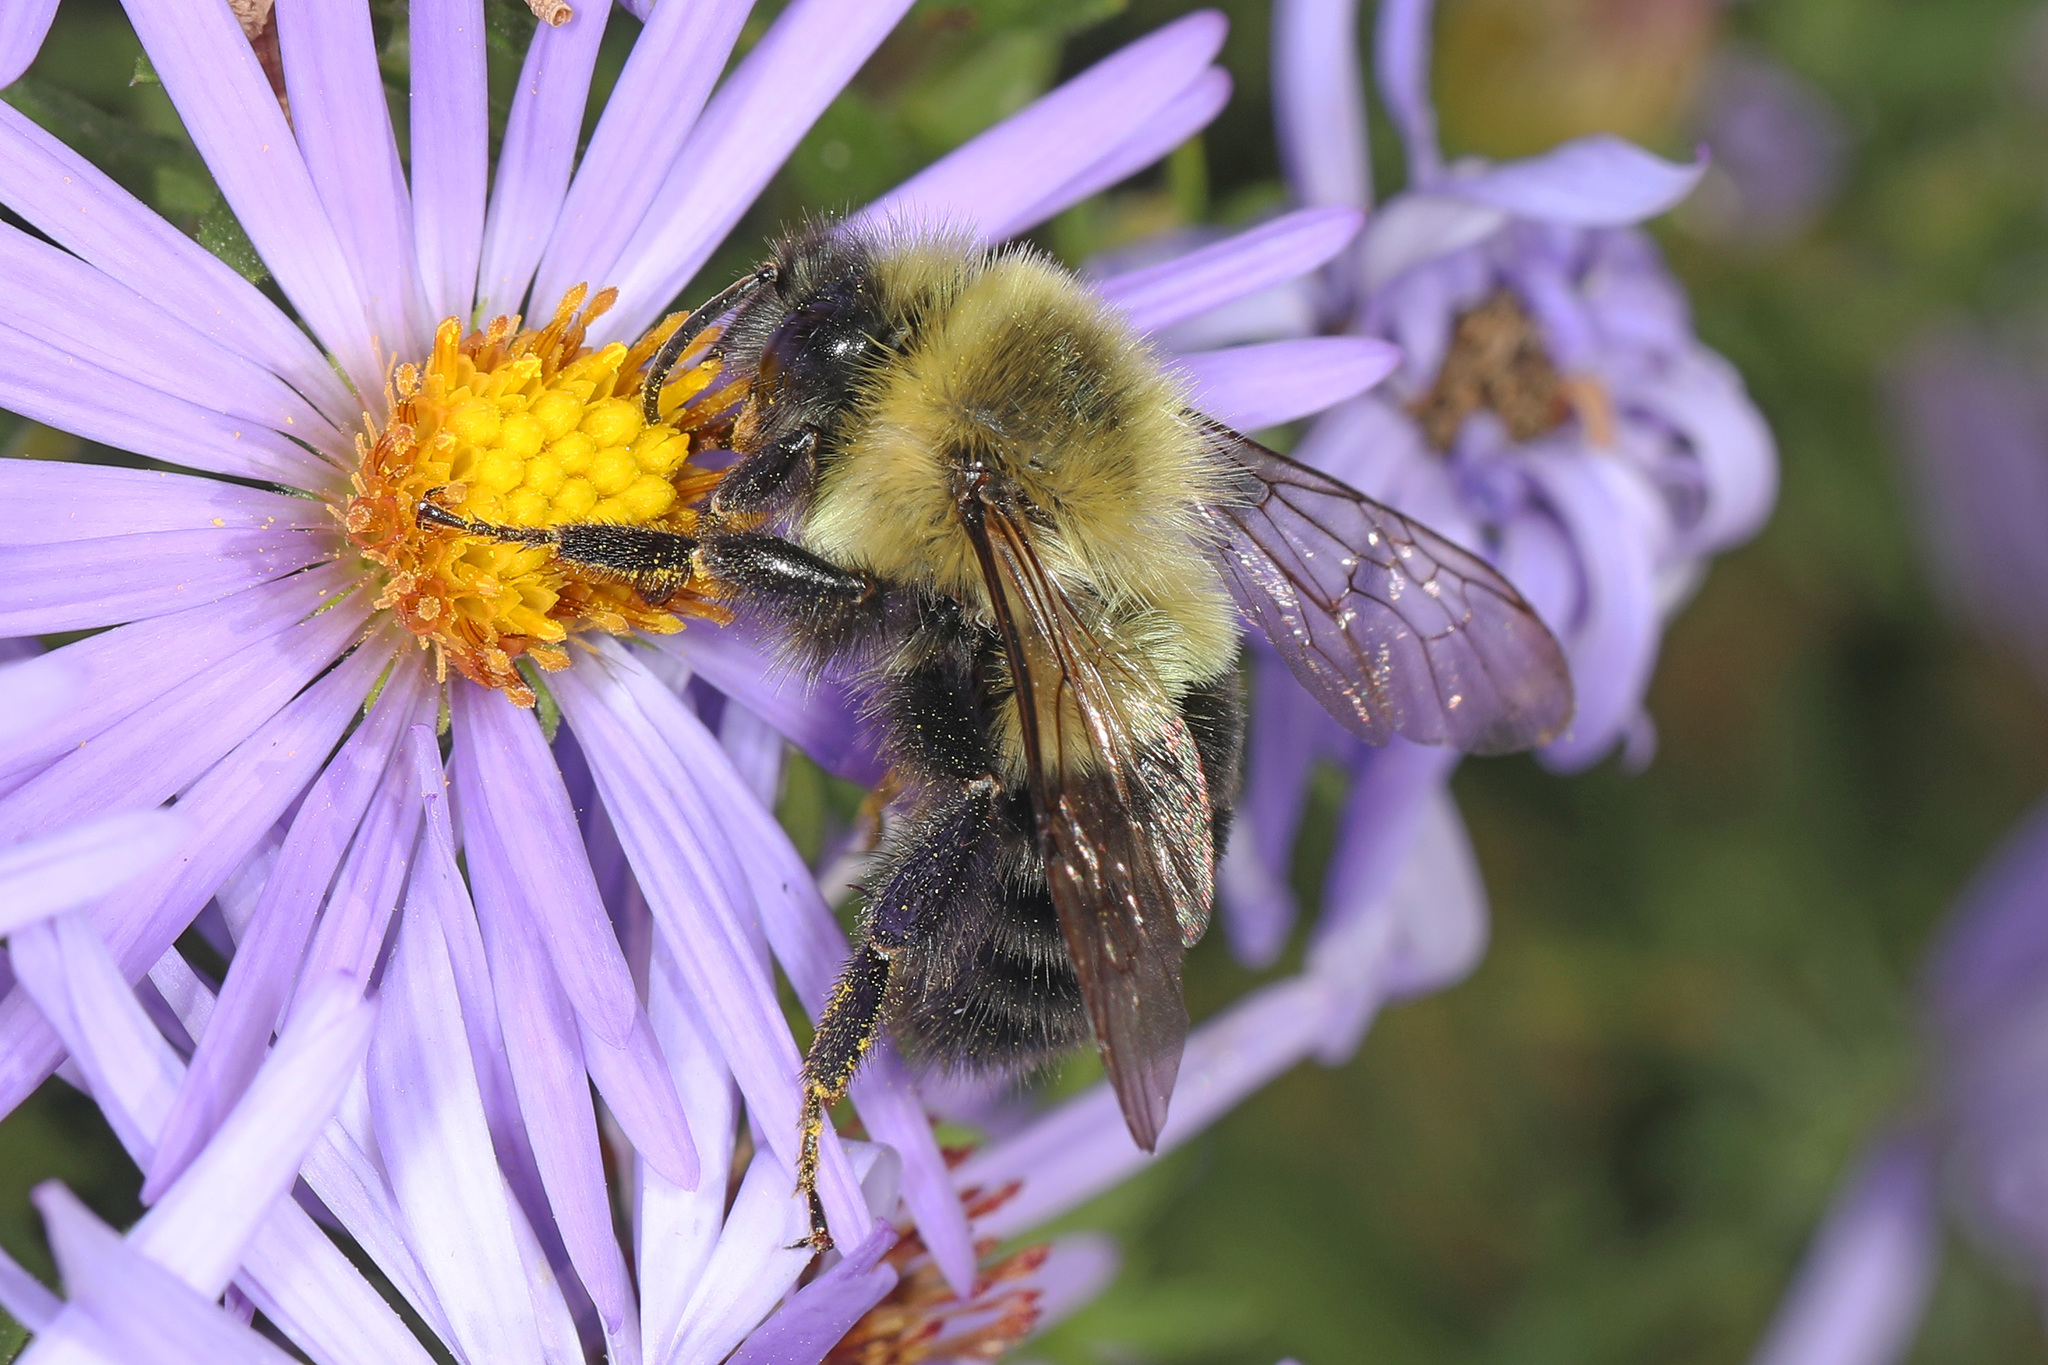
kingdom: Animalia
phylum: Arthropoda
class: Insecta
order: Hymenoptera
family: Apidae
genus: Bombus
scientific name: Bombus impatiens
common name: Common eastern bumble bee
